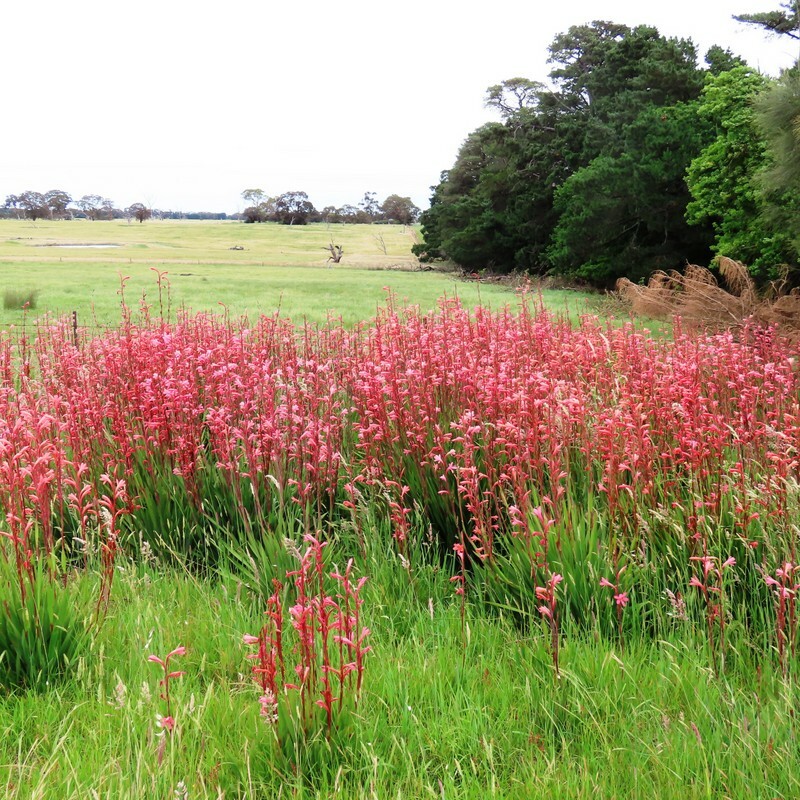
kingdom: Plantae
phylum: Tracheophyta
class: Liliopsida
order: Asparagales
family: Iridaceae
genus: Watsonia
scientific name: Watsonia meriana
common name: Bulbil bugle-lily
